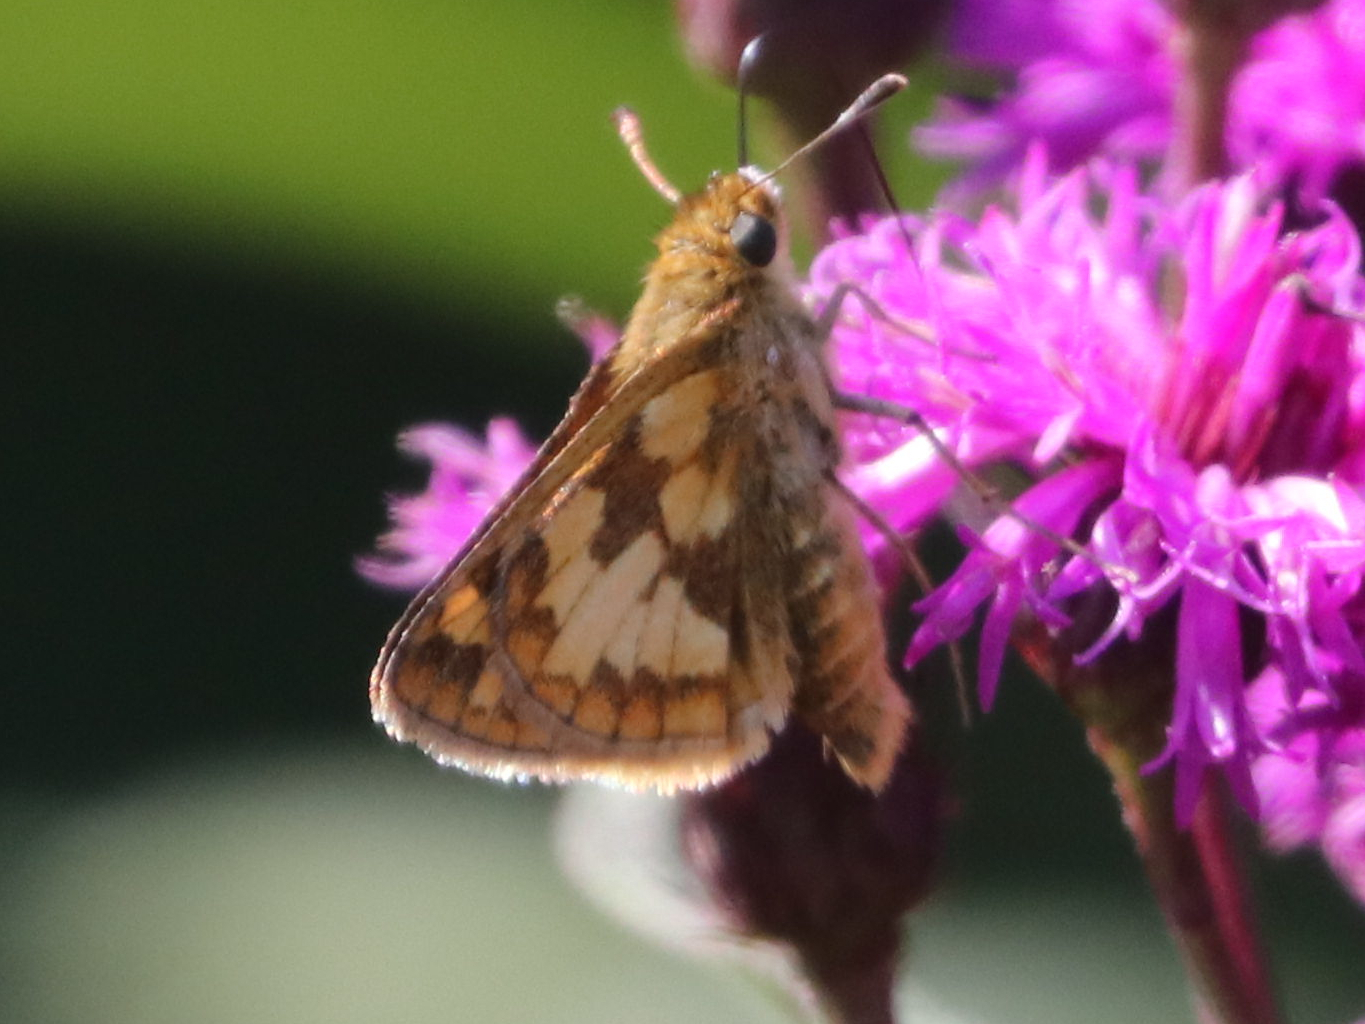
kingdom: Animalia
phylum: Arthropoda
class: Insecta
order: Lepidoptera
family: Hesperiidae
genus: Polites
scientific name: Polites coras
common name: Peck's skipper
